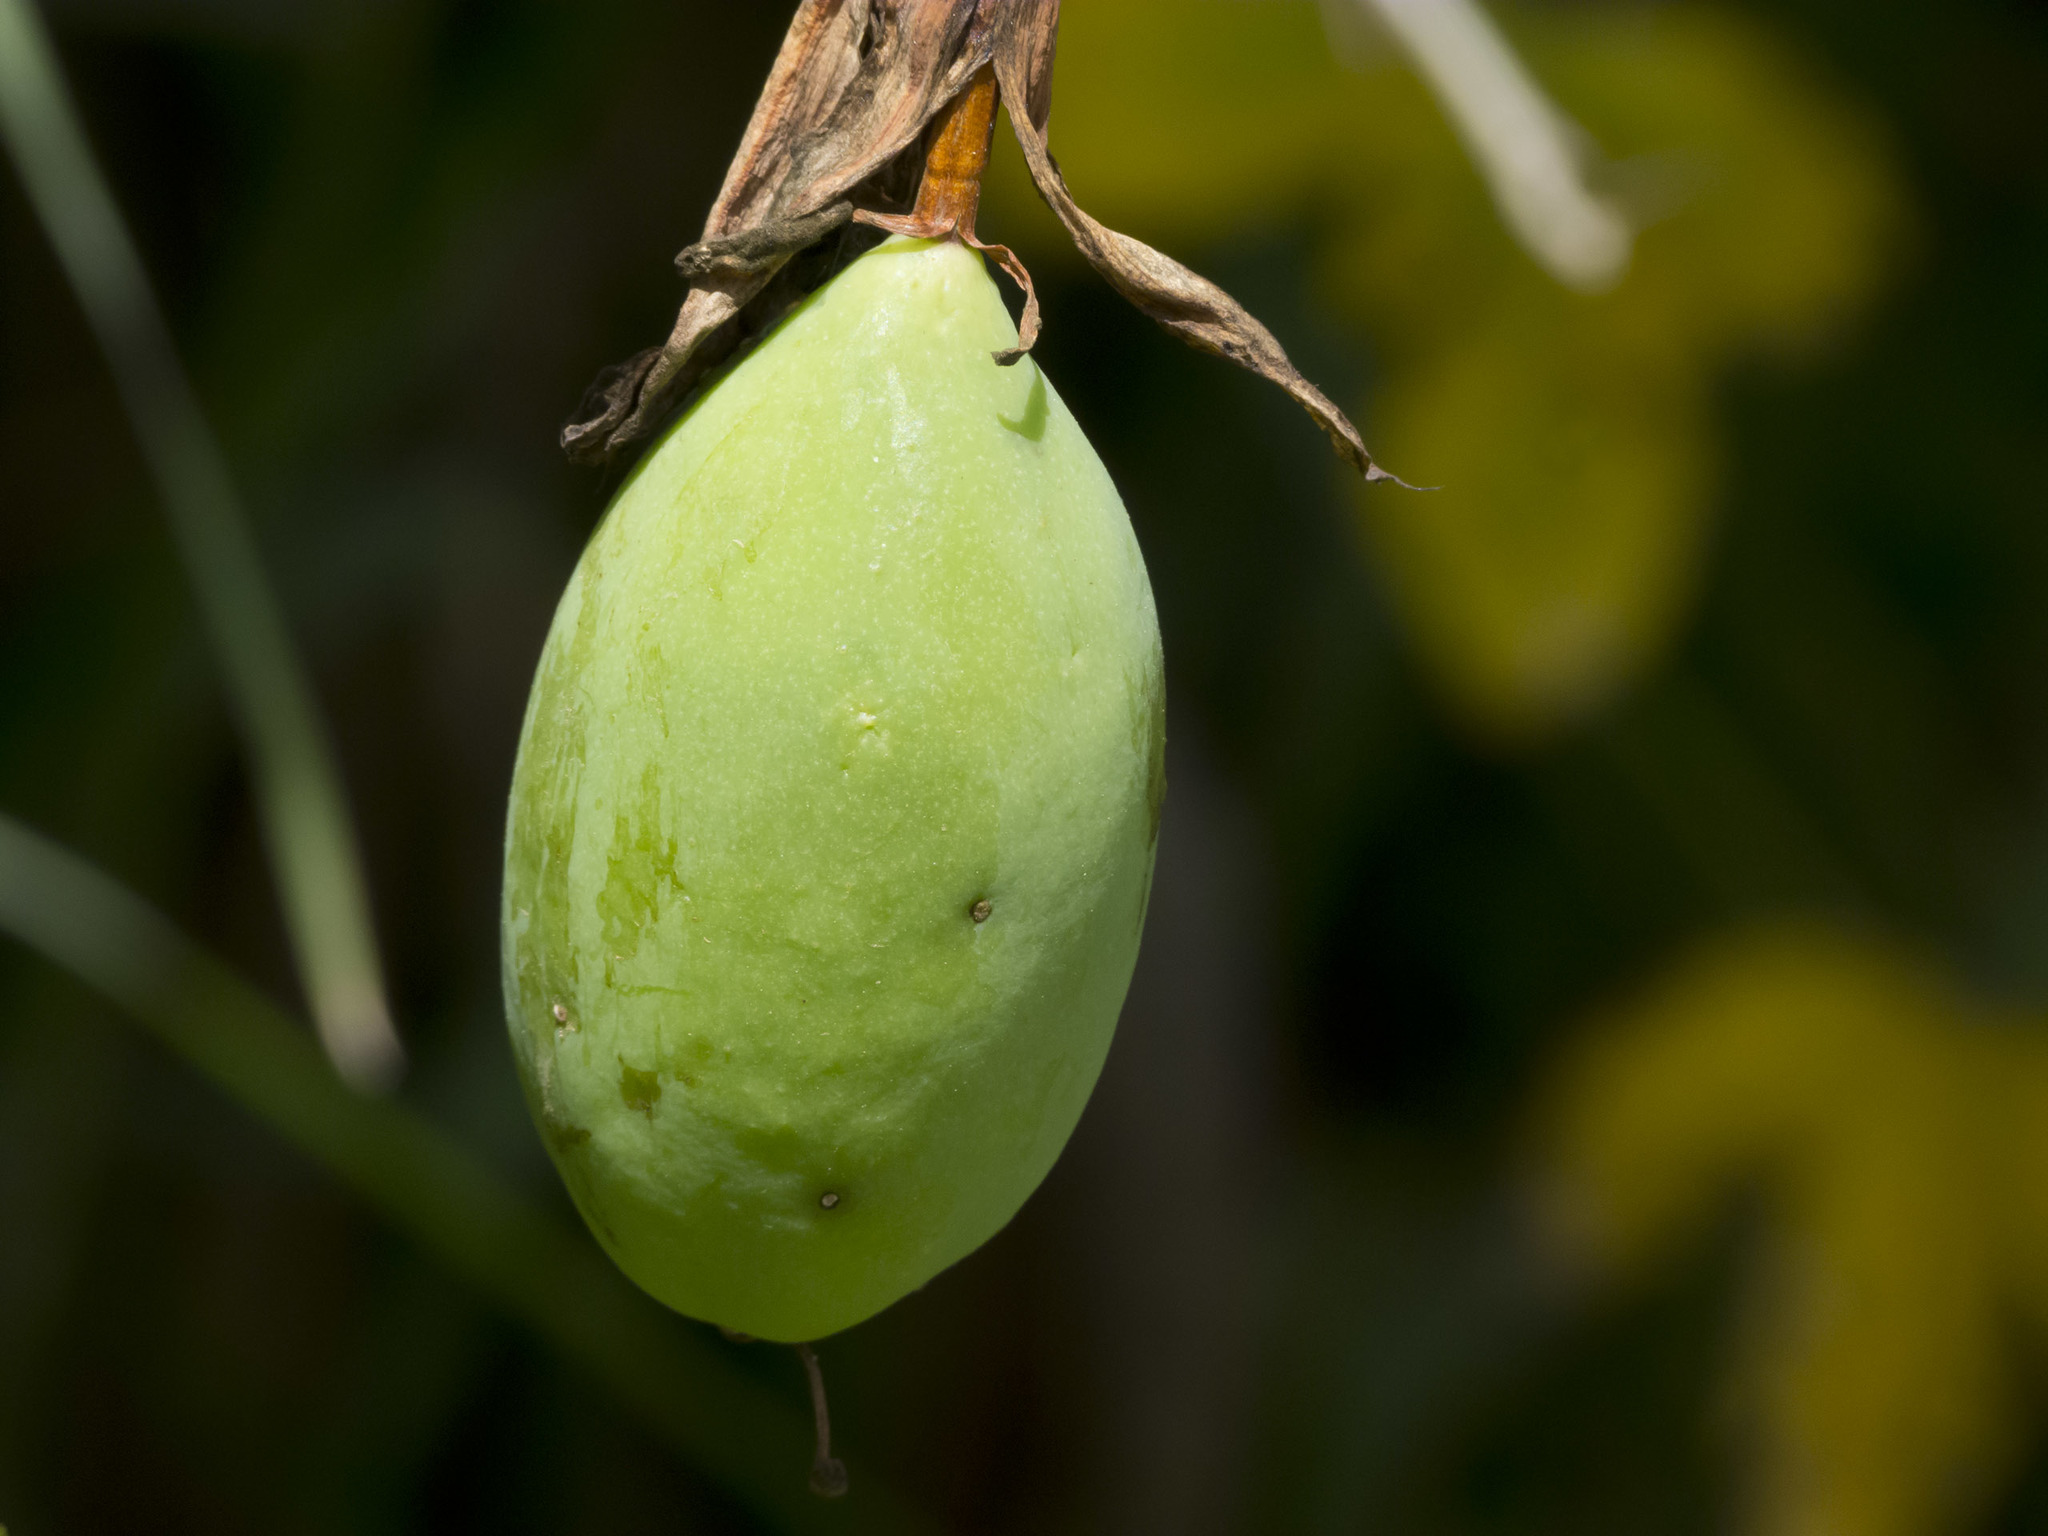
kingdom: Plantae
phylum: Tracheophyta
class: Magnoliopsida
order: Malpighiales
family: Passifloraceae
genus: Passiflora
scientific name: Passiflora manicata
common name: Red passionflower
